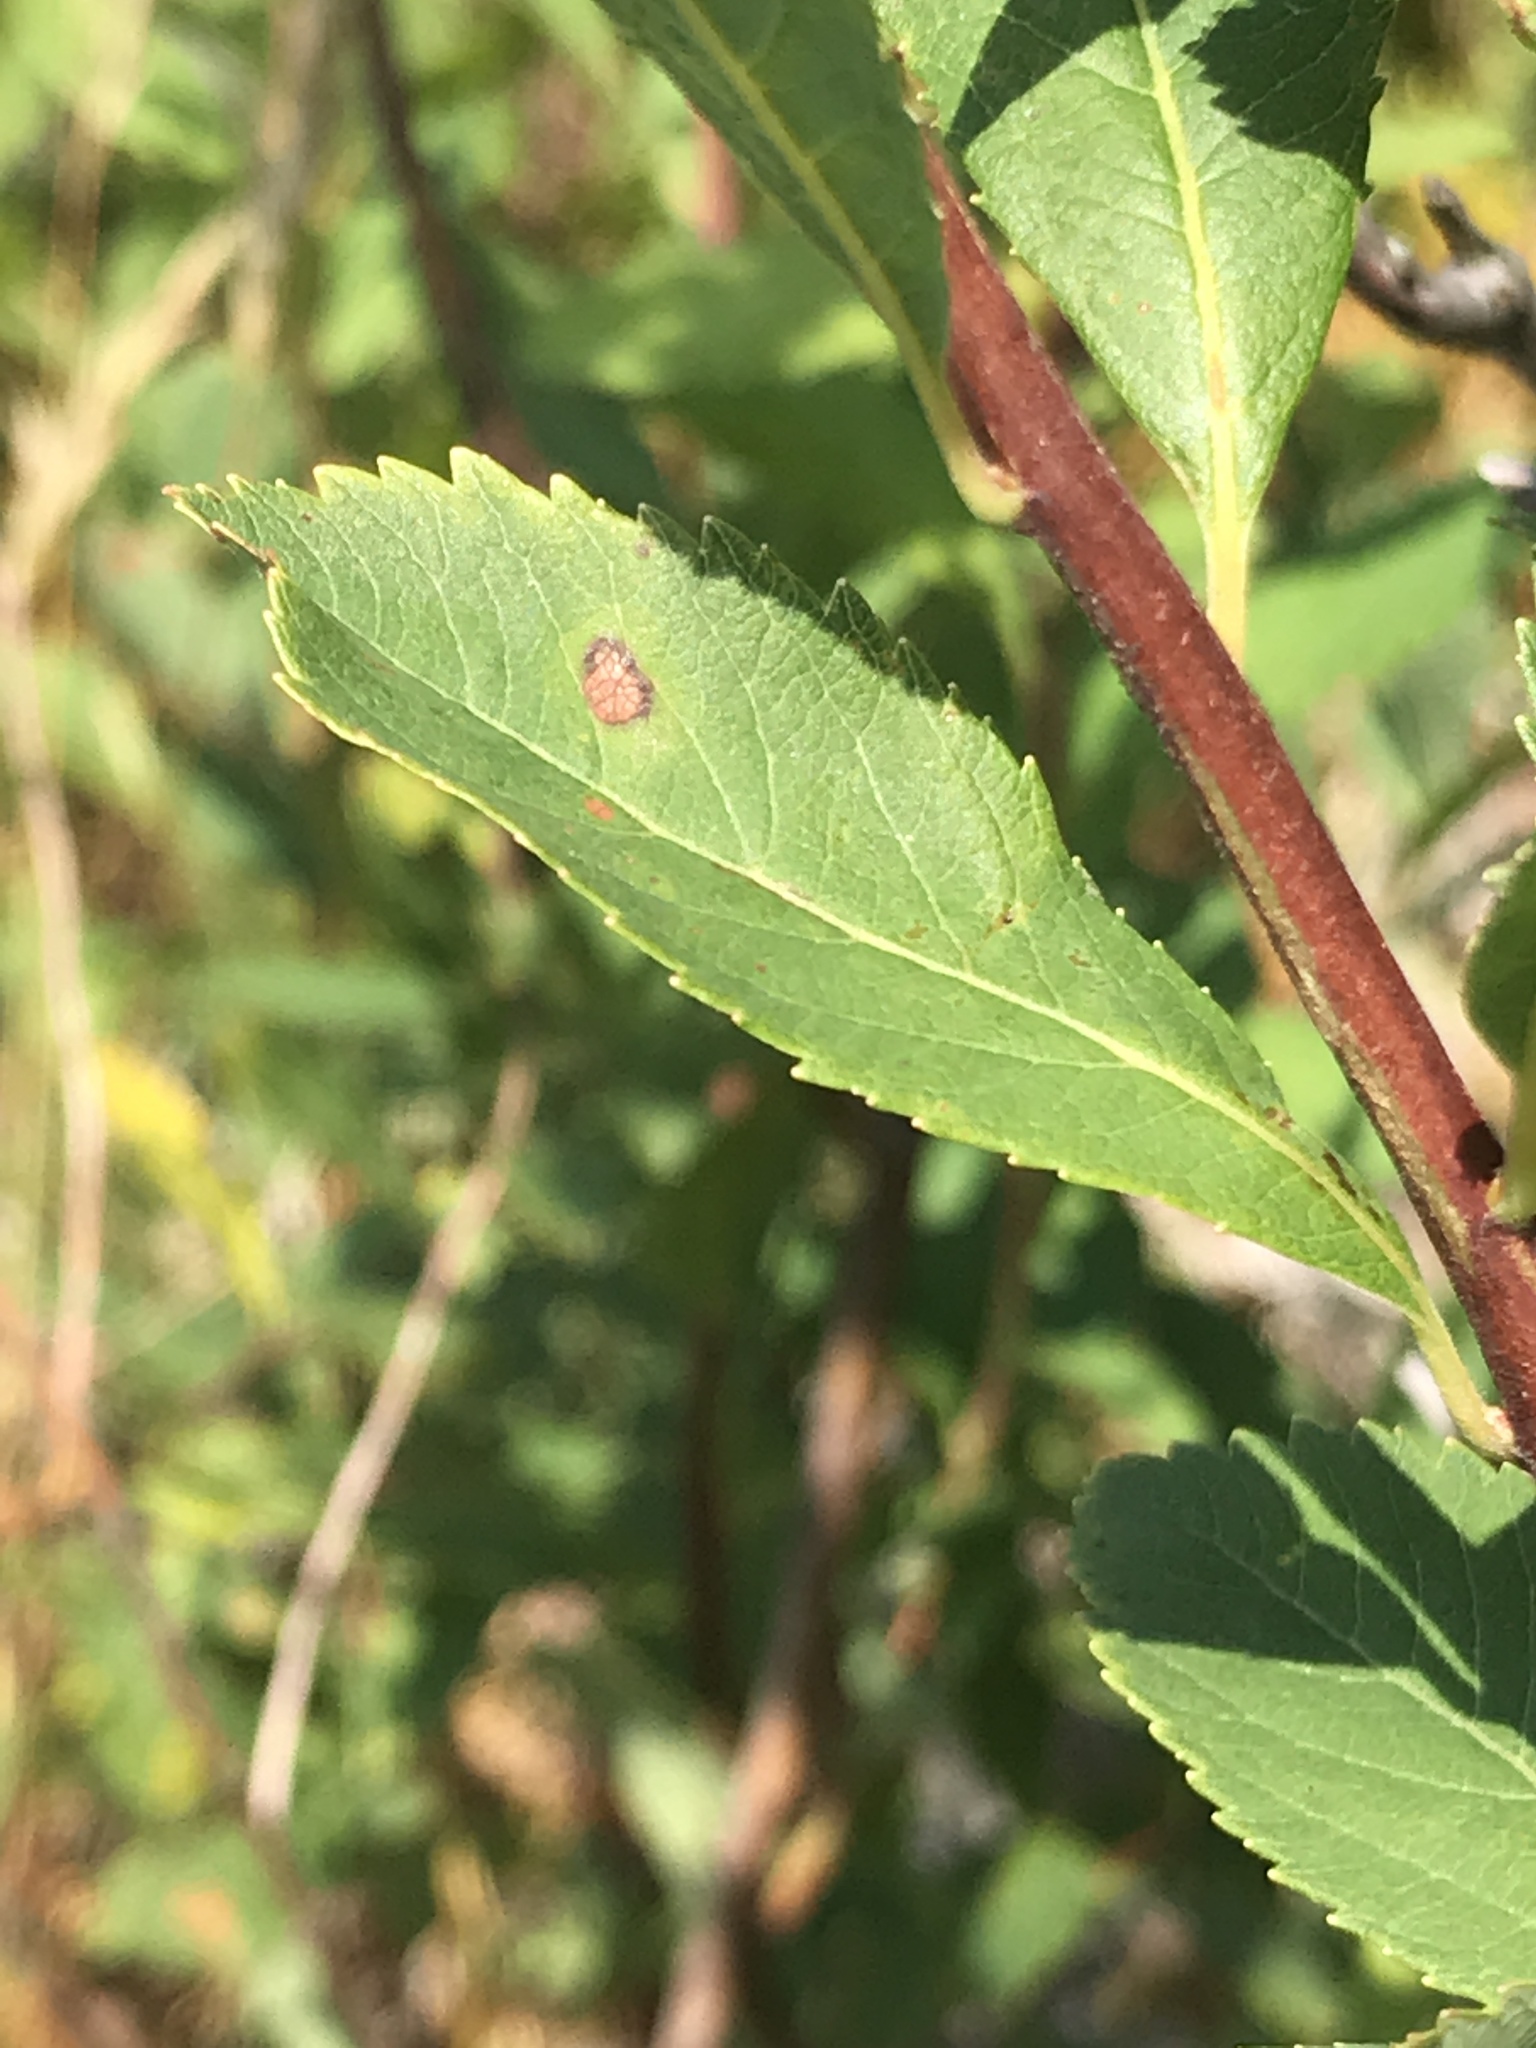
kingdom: Plantae
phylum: Tracheophyta
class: Magnoliopsida
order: Rosales
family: Rosaceae
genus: Spiraea
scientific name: Spiraea alba
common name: Pale bridewort
